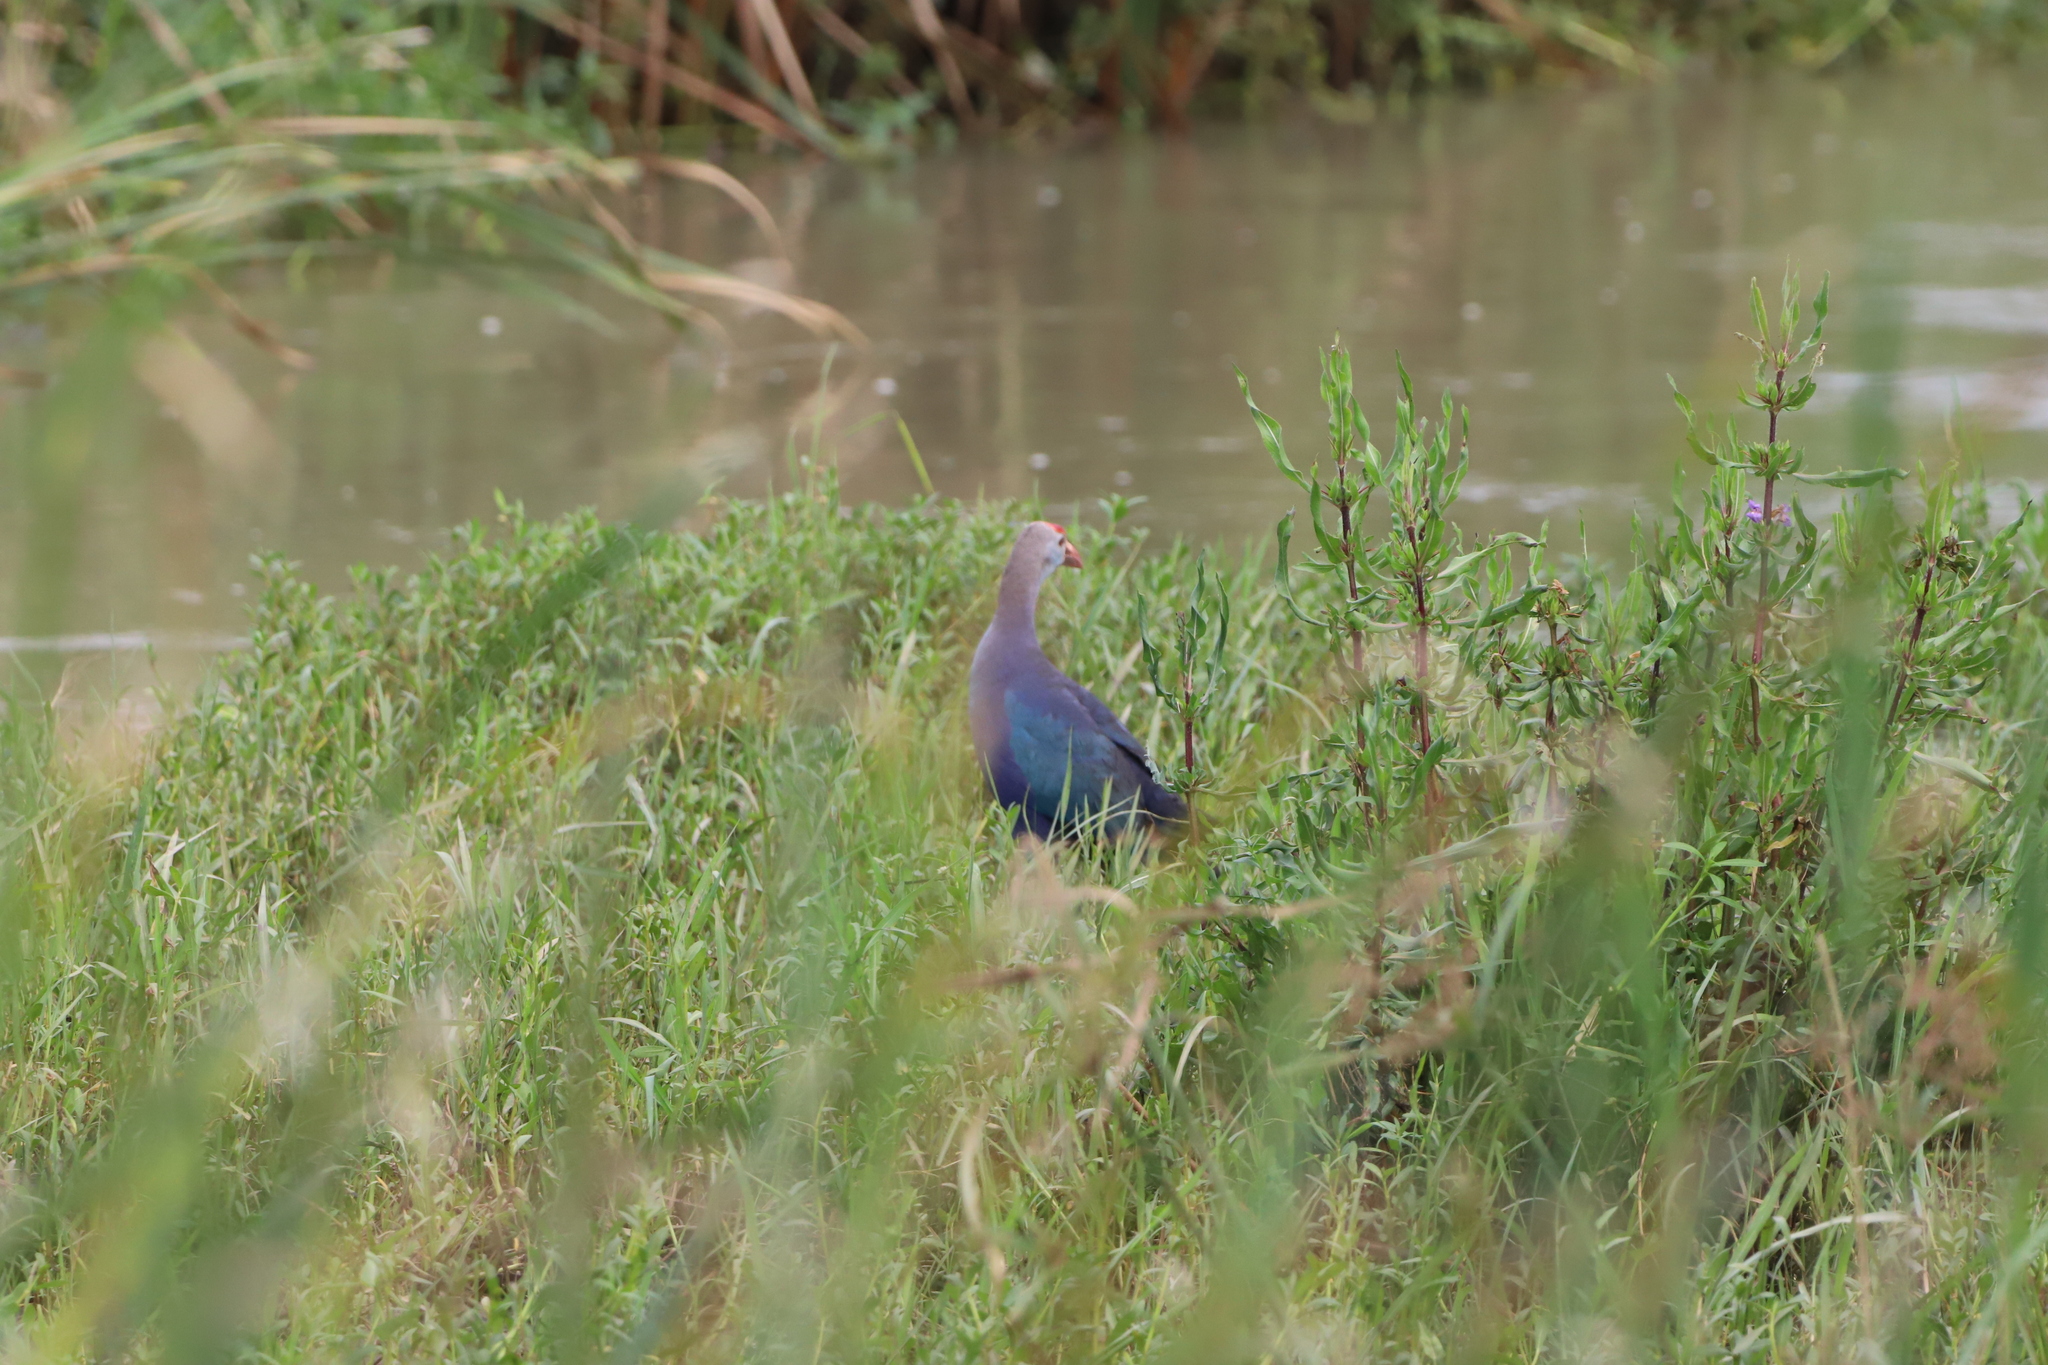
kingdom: Animalia
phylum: Chordata
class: Aves
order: Gruiformes
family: Rallidae
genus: Porphyrio
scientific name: Porphyrio porphyrio
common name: Purple swamphen
